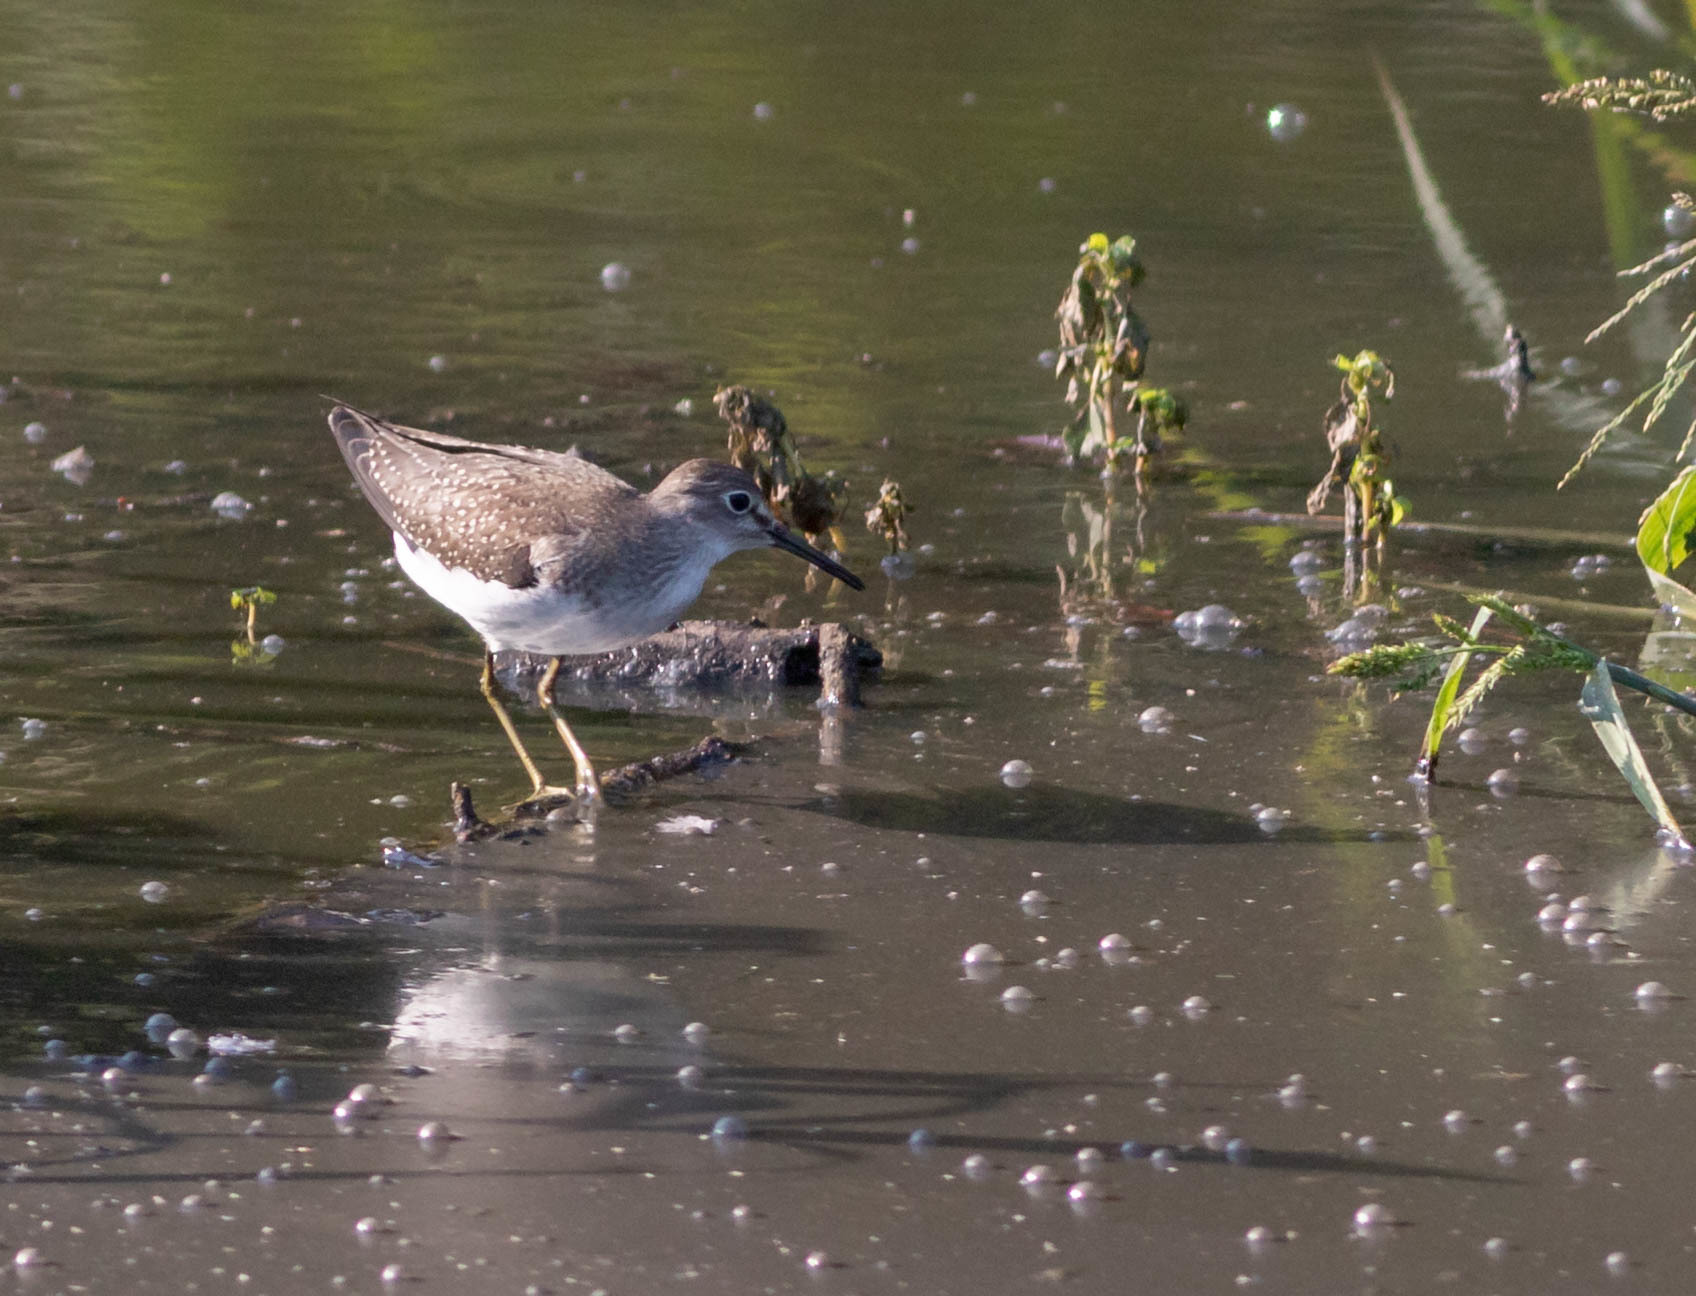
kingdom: Animalia
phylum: Chordata
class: Aves
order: Charadriiformes
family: Scolopacidae
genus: Tringa
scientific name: Tringa solitaria
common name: Solitary sandpiper
